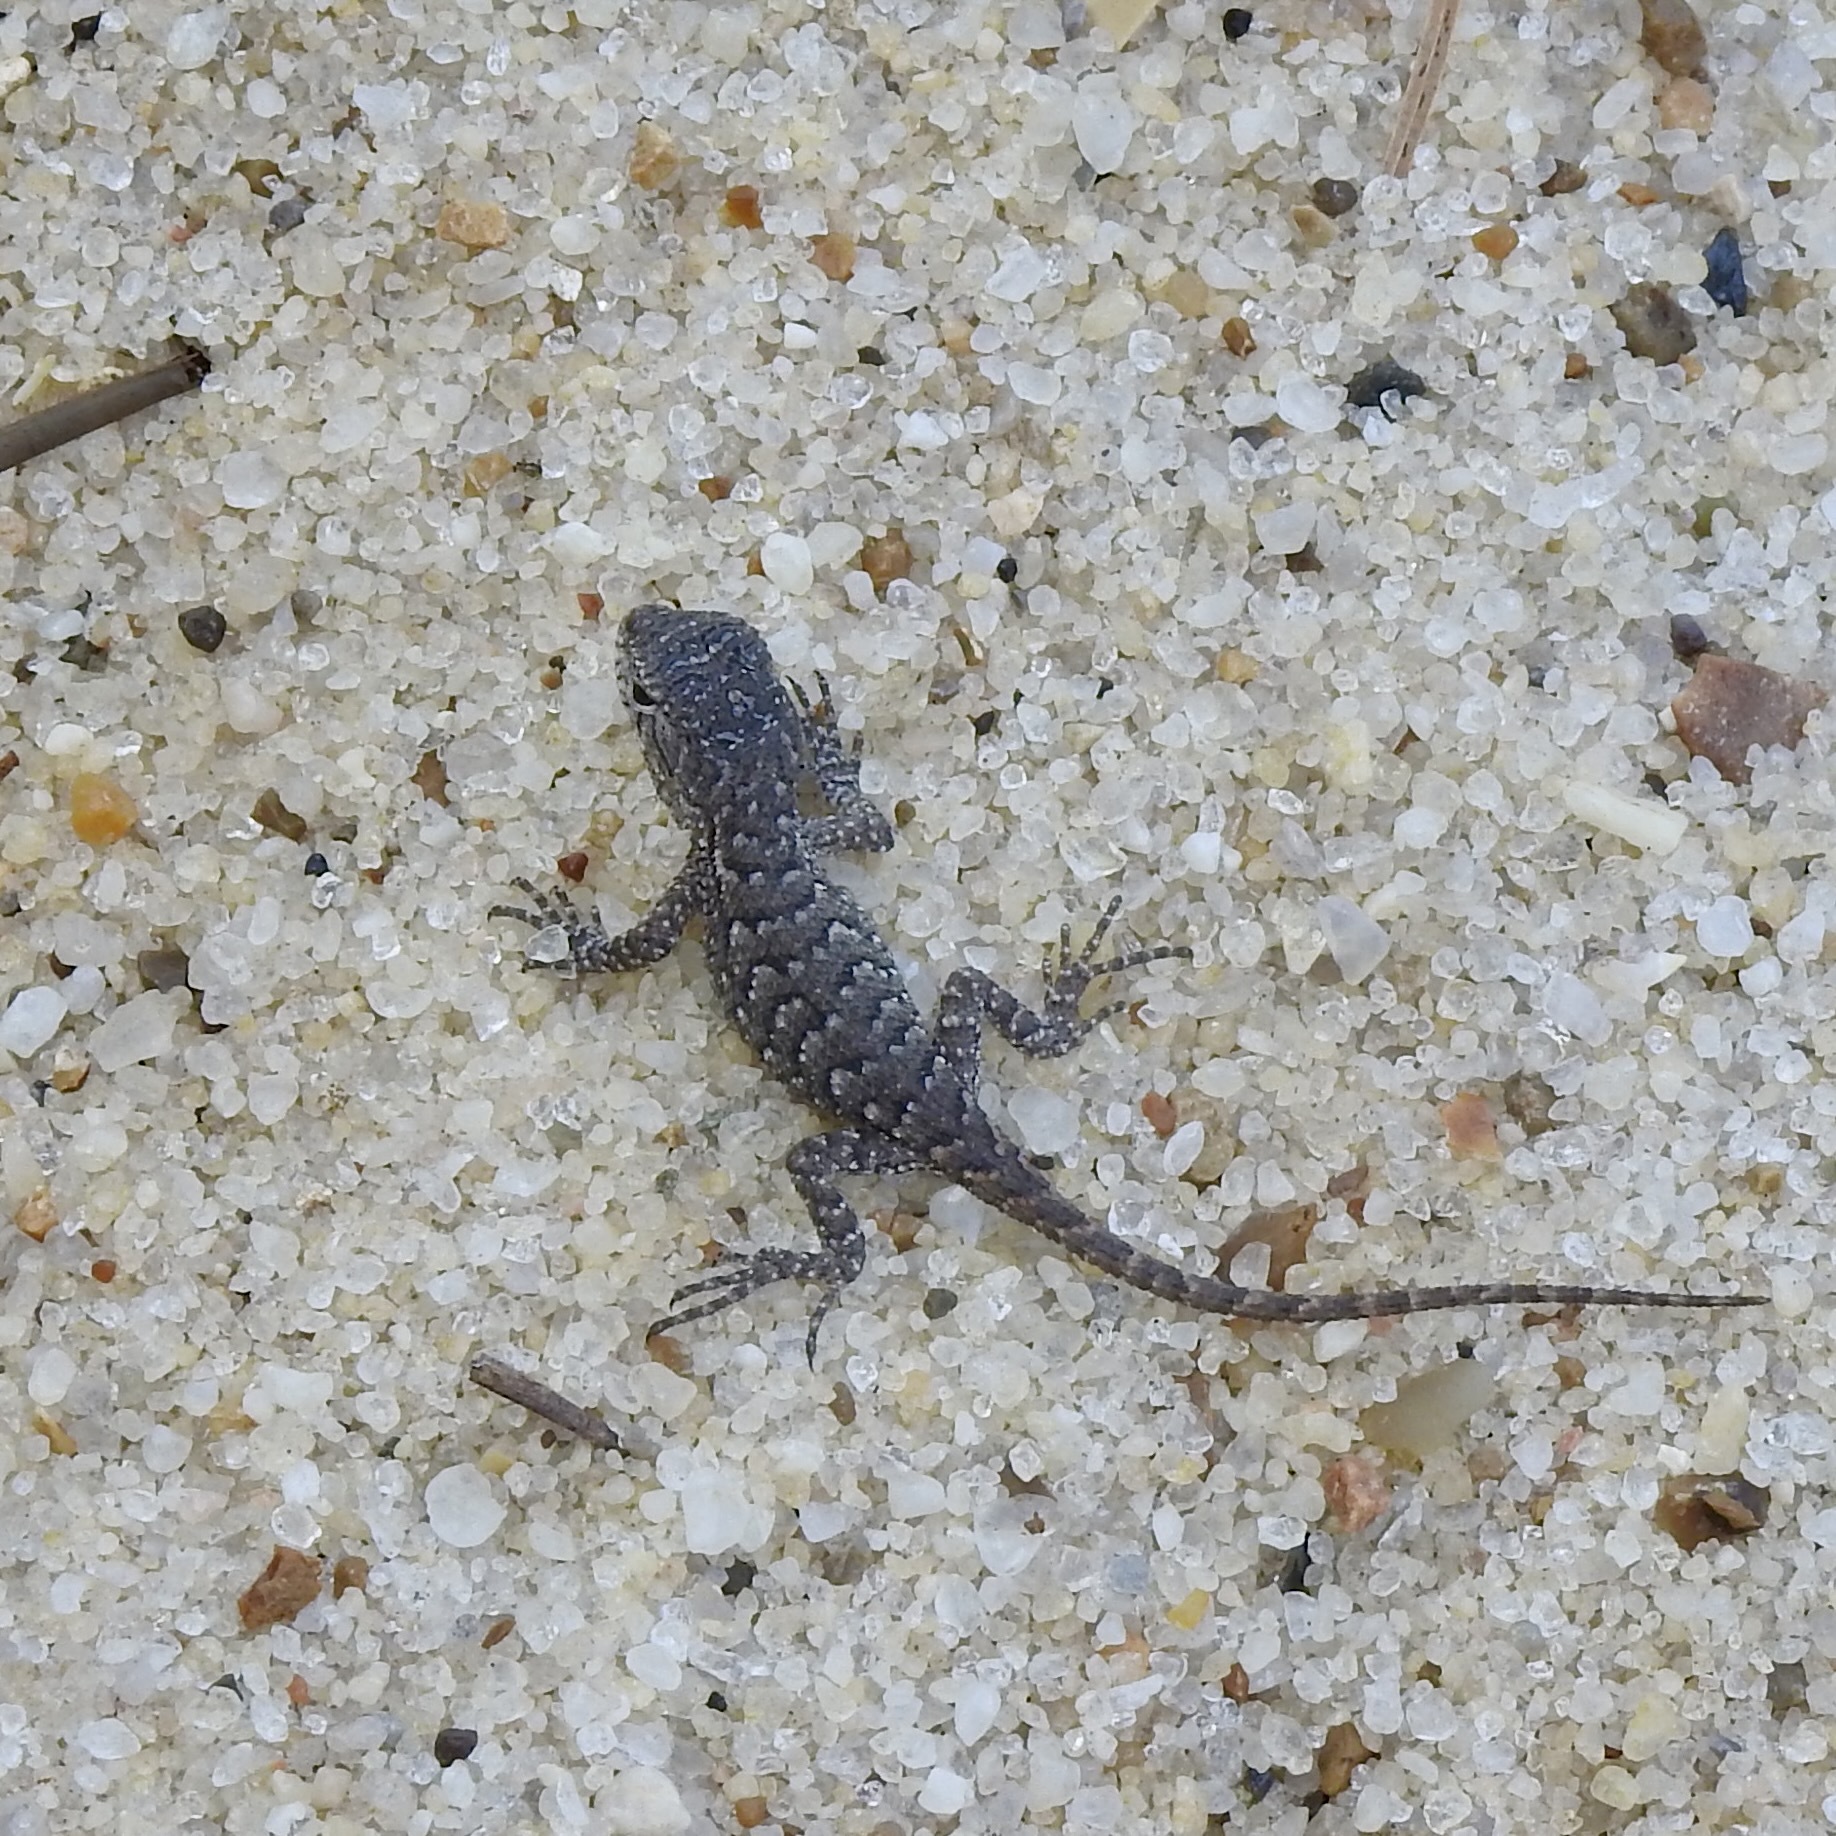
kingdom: Animalia
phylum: Chordata
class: Squamata
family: Phrynosomatidae
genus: Sceloporus
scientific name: Sceloporus consobrinus
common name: Southern prairie lizard
